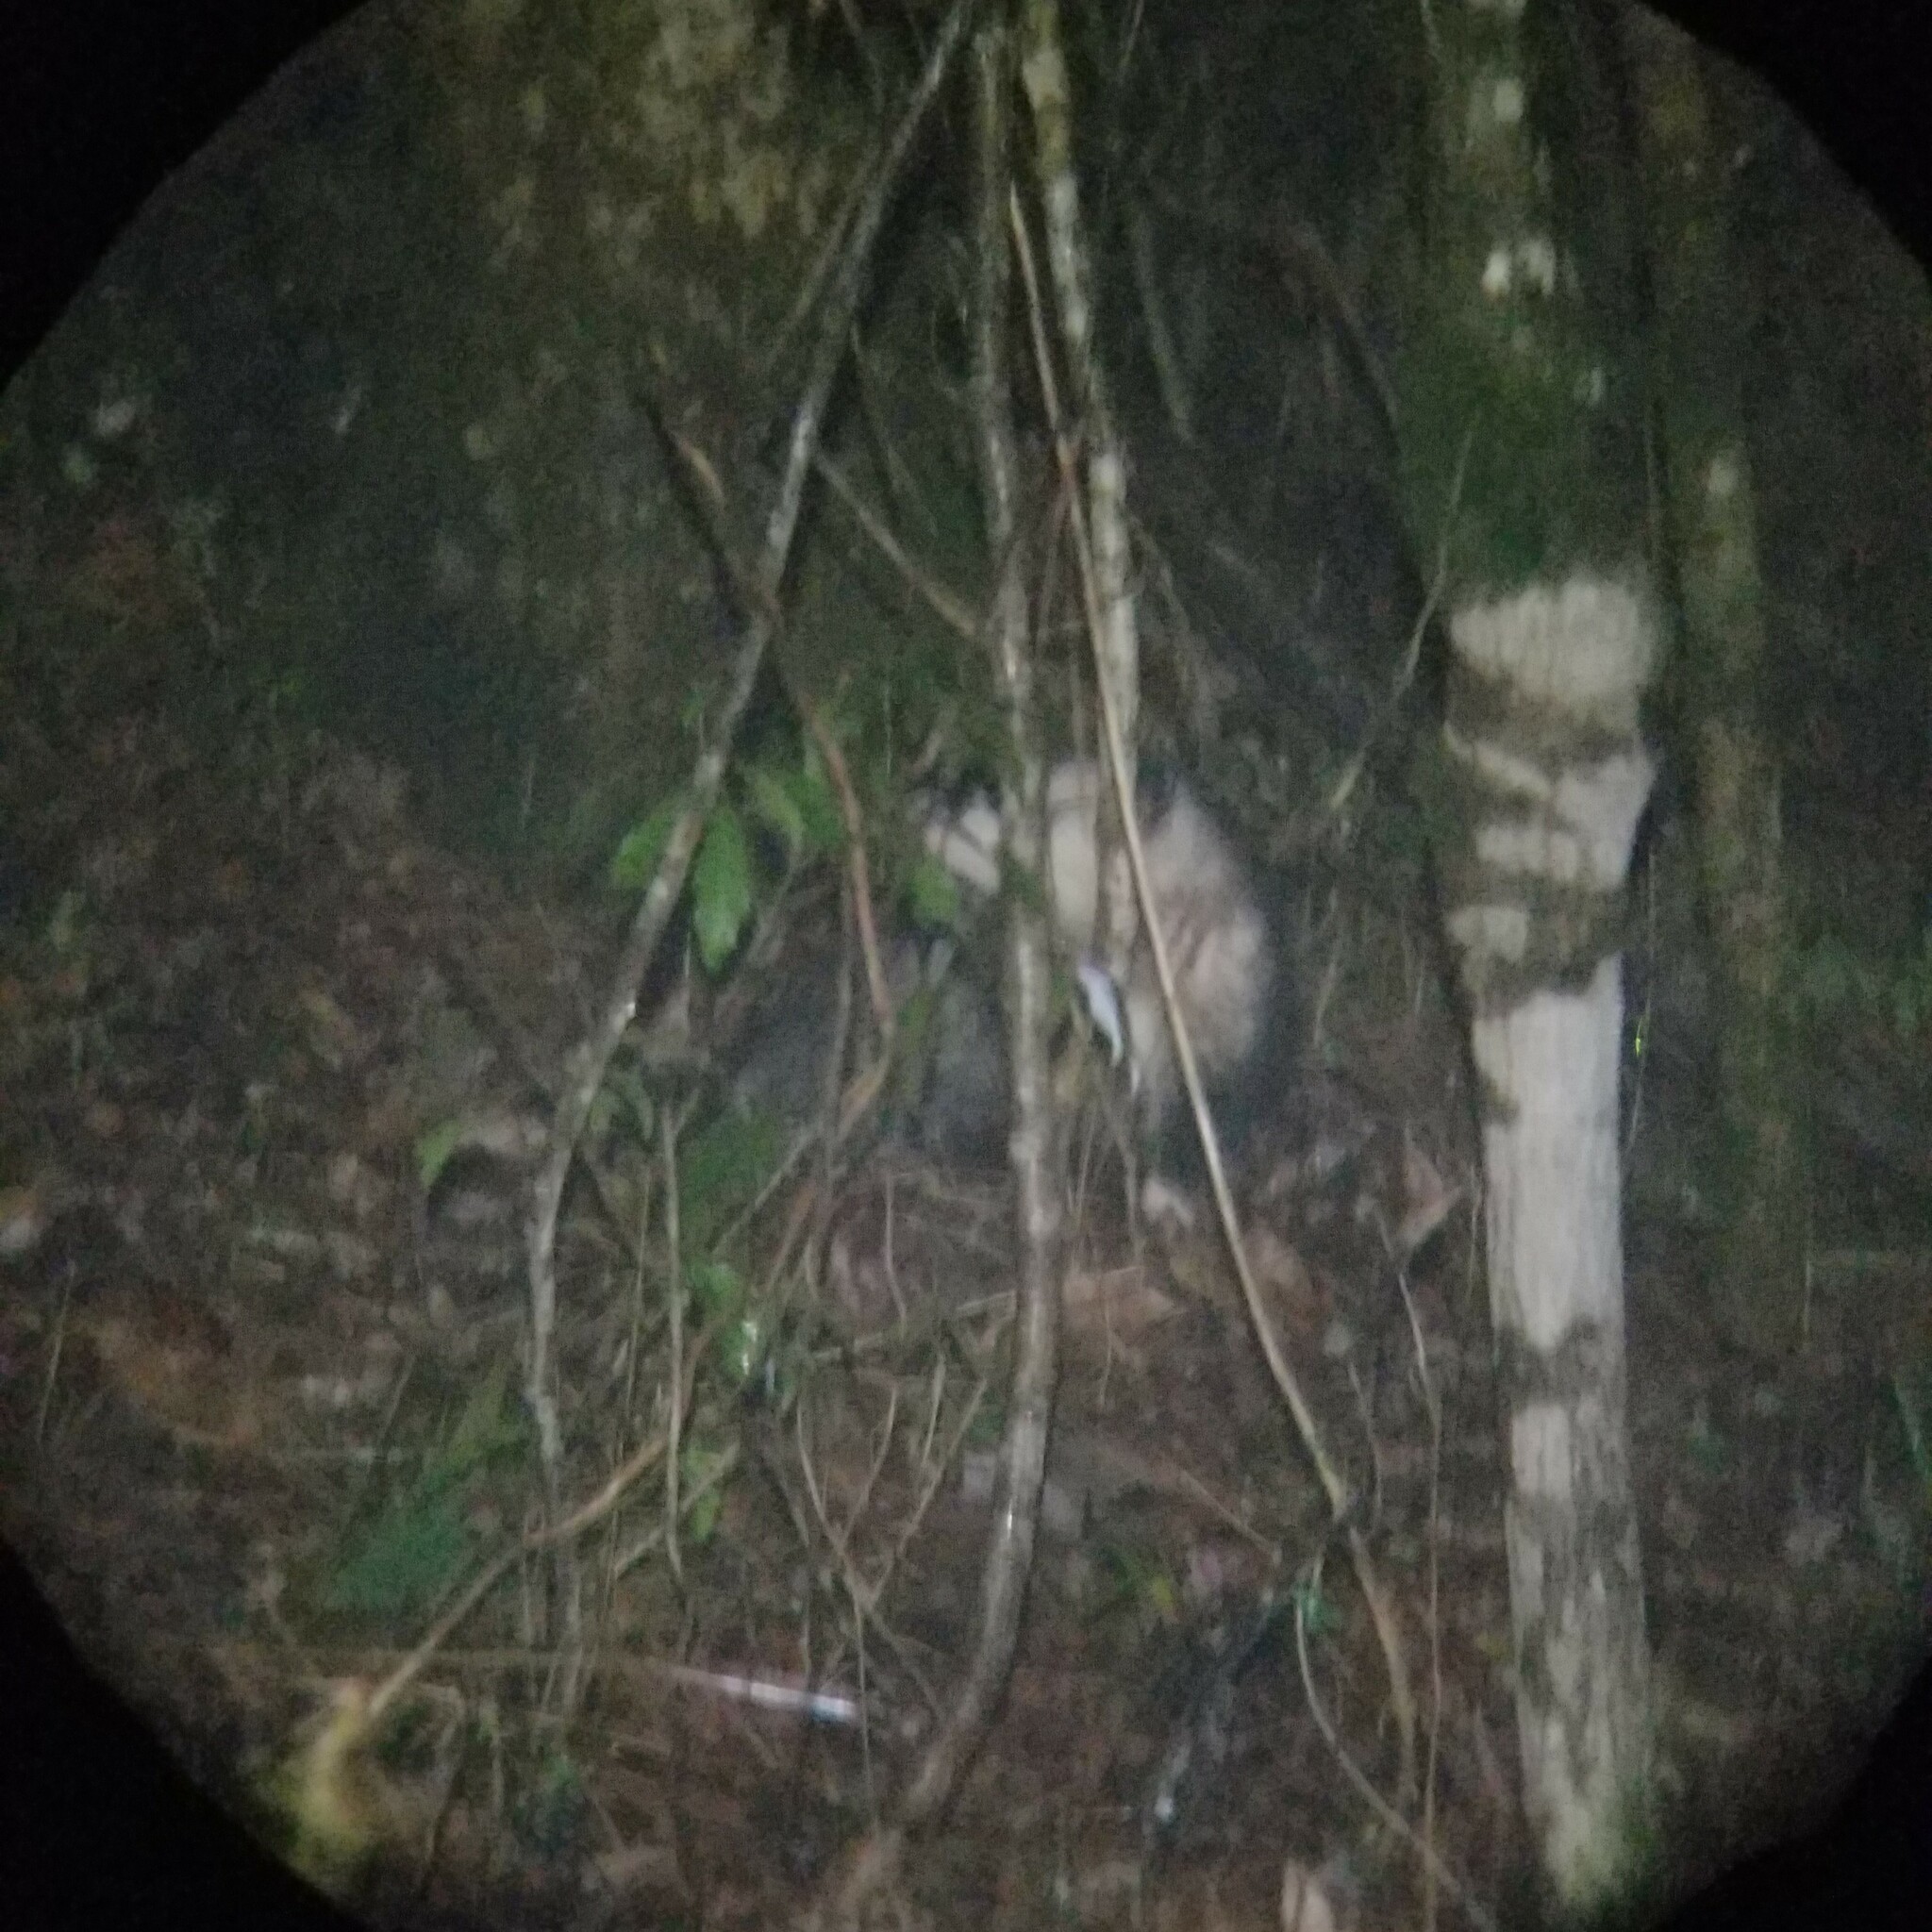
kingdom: Animalia
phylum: Chordata
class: Mammalia
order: Didelphimorphia
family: Didelphidae
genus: Didelphis
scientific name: Didelphis virginiana
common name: Virginia opossum
